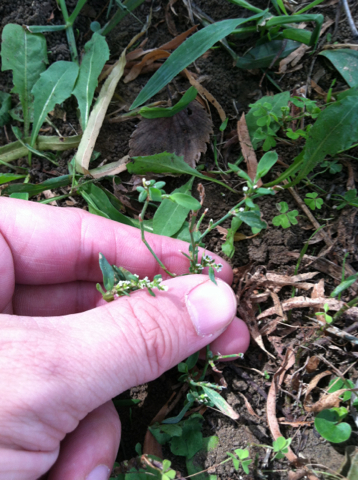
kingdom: Plantae
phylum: Tracheophyta
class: Magnoliopsida
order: Caryophyllales
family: Polygonaceae
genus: Polygonum
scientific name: Polygonum aviculare
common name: Prostrate knotweed
